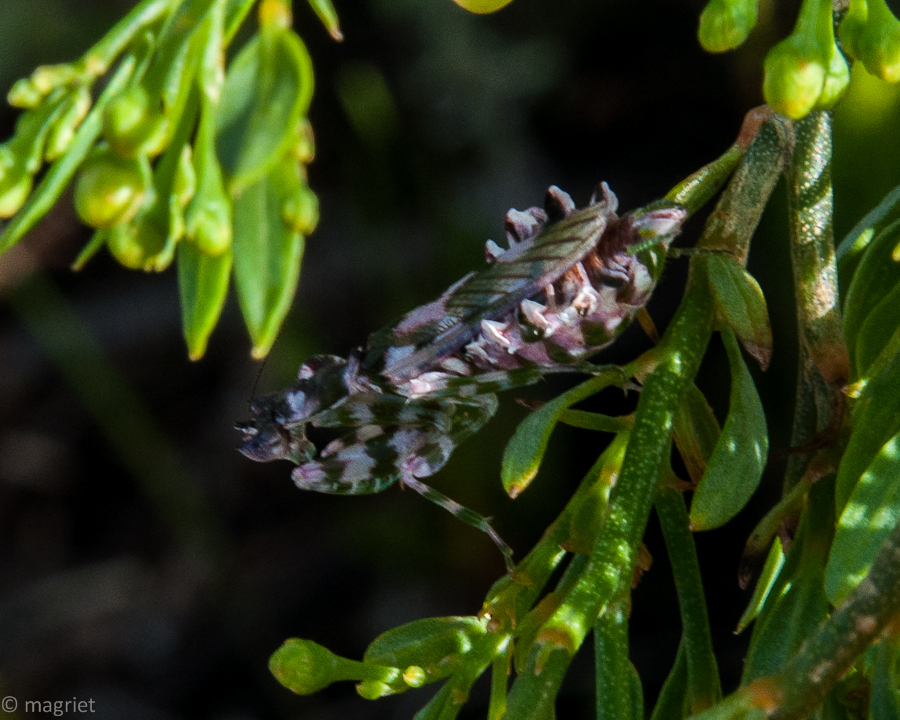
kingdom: Animalia
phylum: Arthropoda
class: Insecta
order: Mantodea
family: Galinthiadidae
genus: Harpagomantis
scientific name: Harpagomantis tricolor
